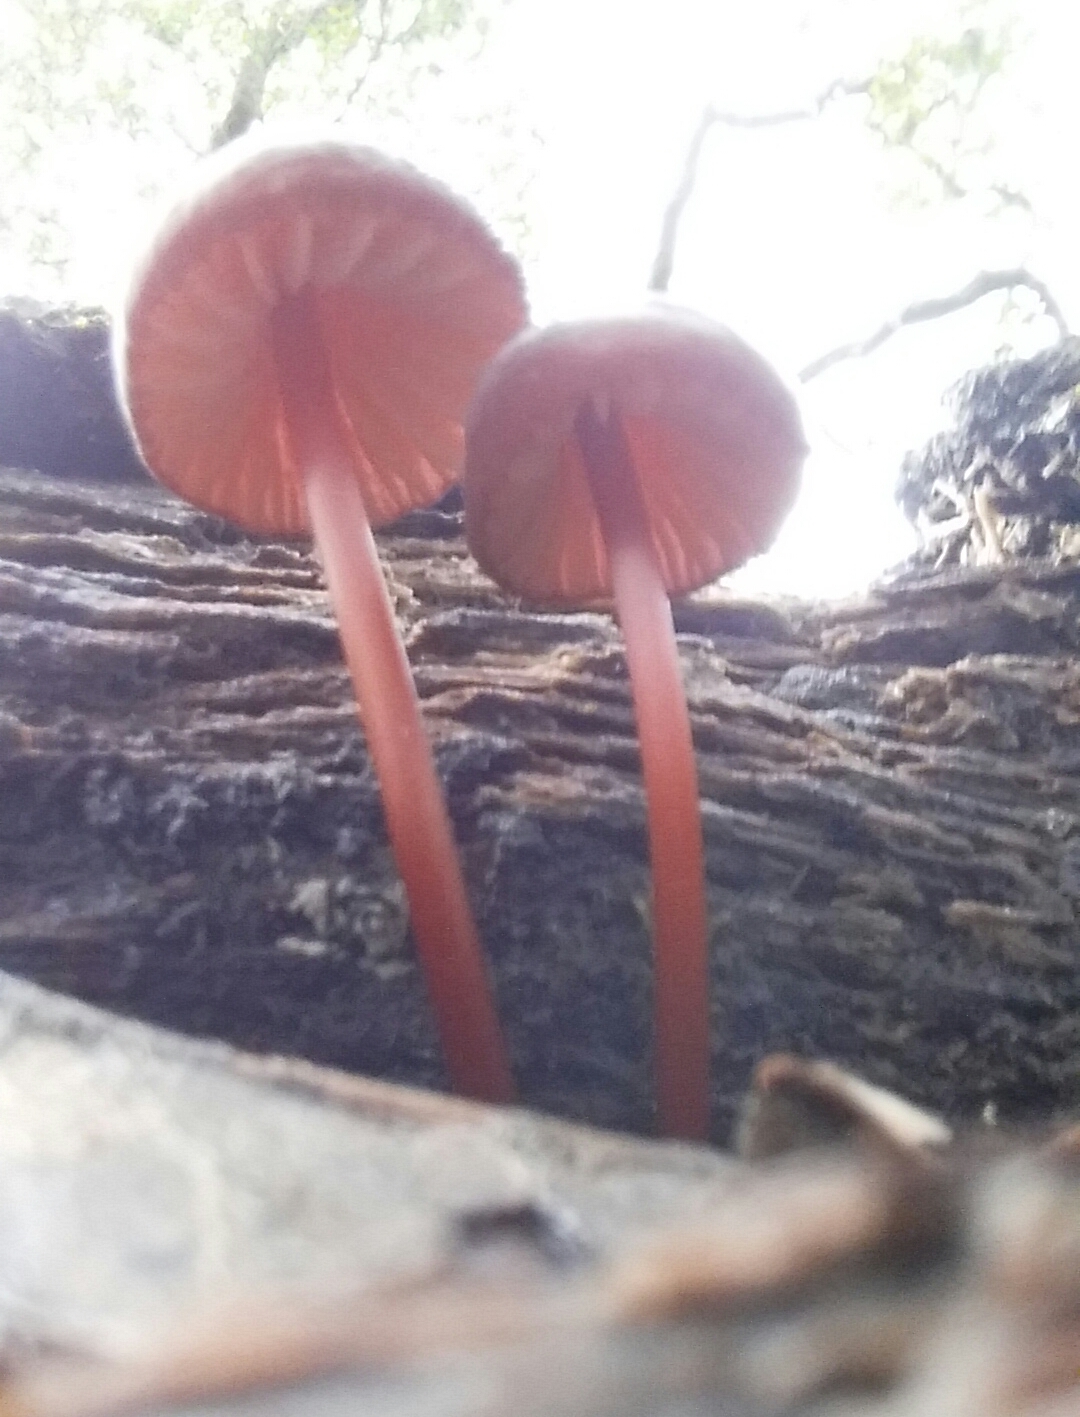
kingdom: Fungi
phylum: Basidiomycota
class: Agaricomycetes
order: Agaricales
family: Marasmiaceae
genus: Marasmius
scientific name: Marasmius plicatulus
